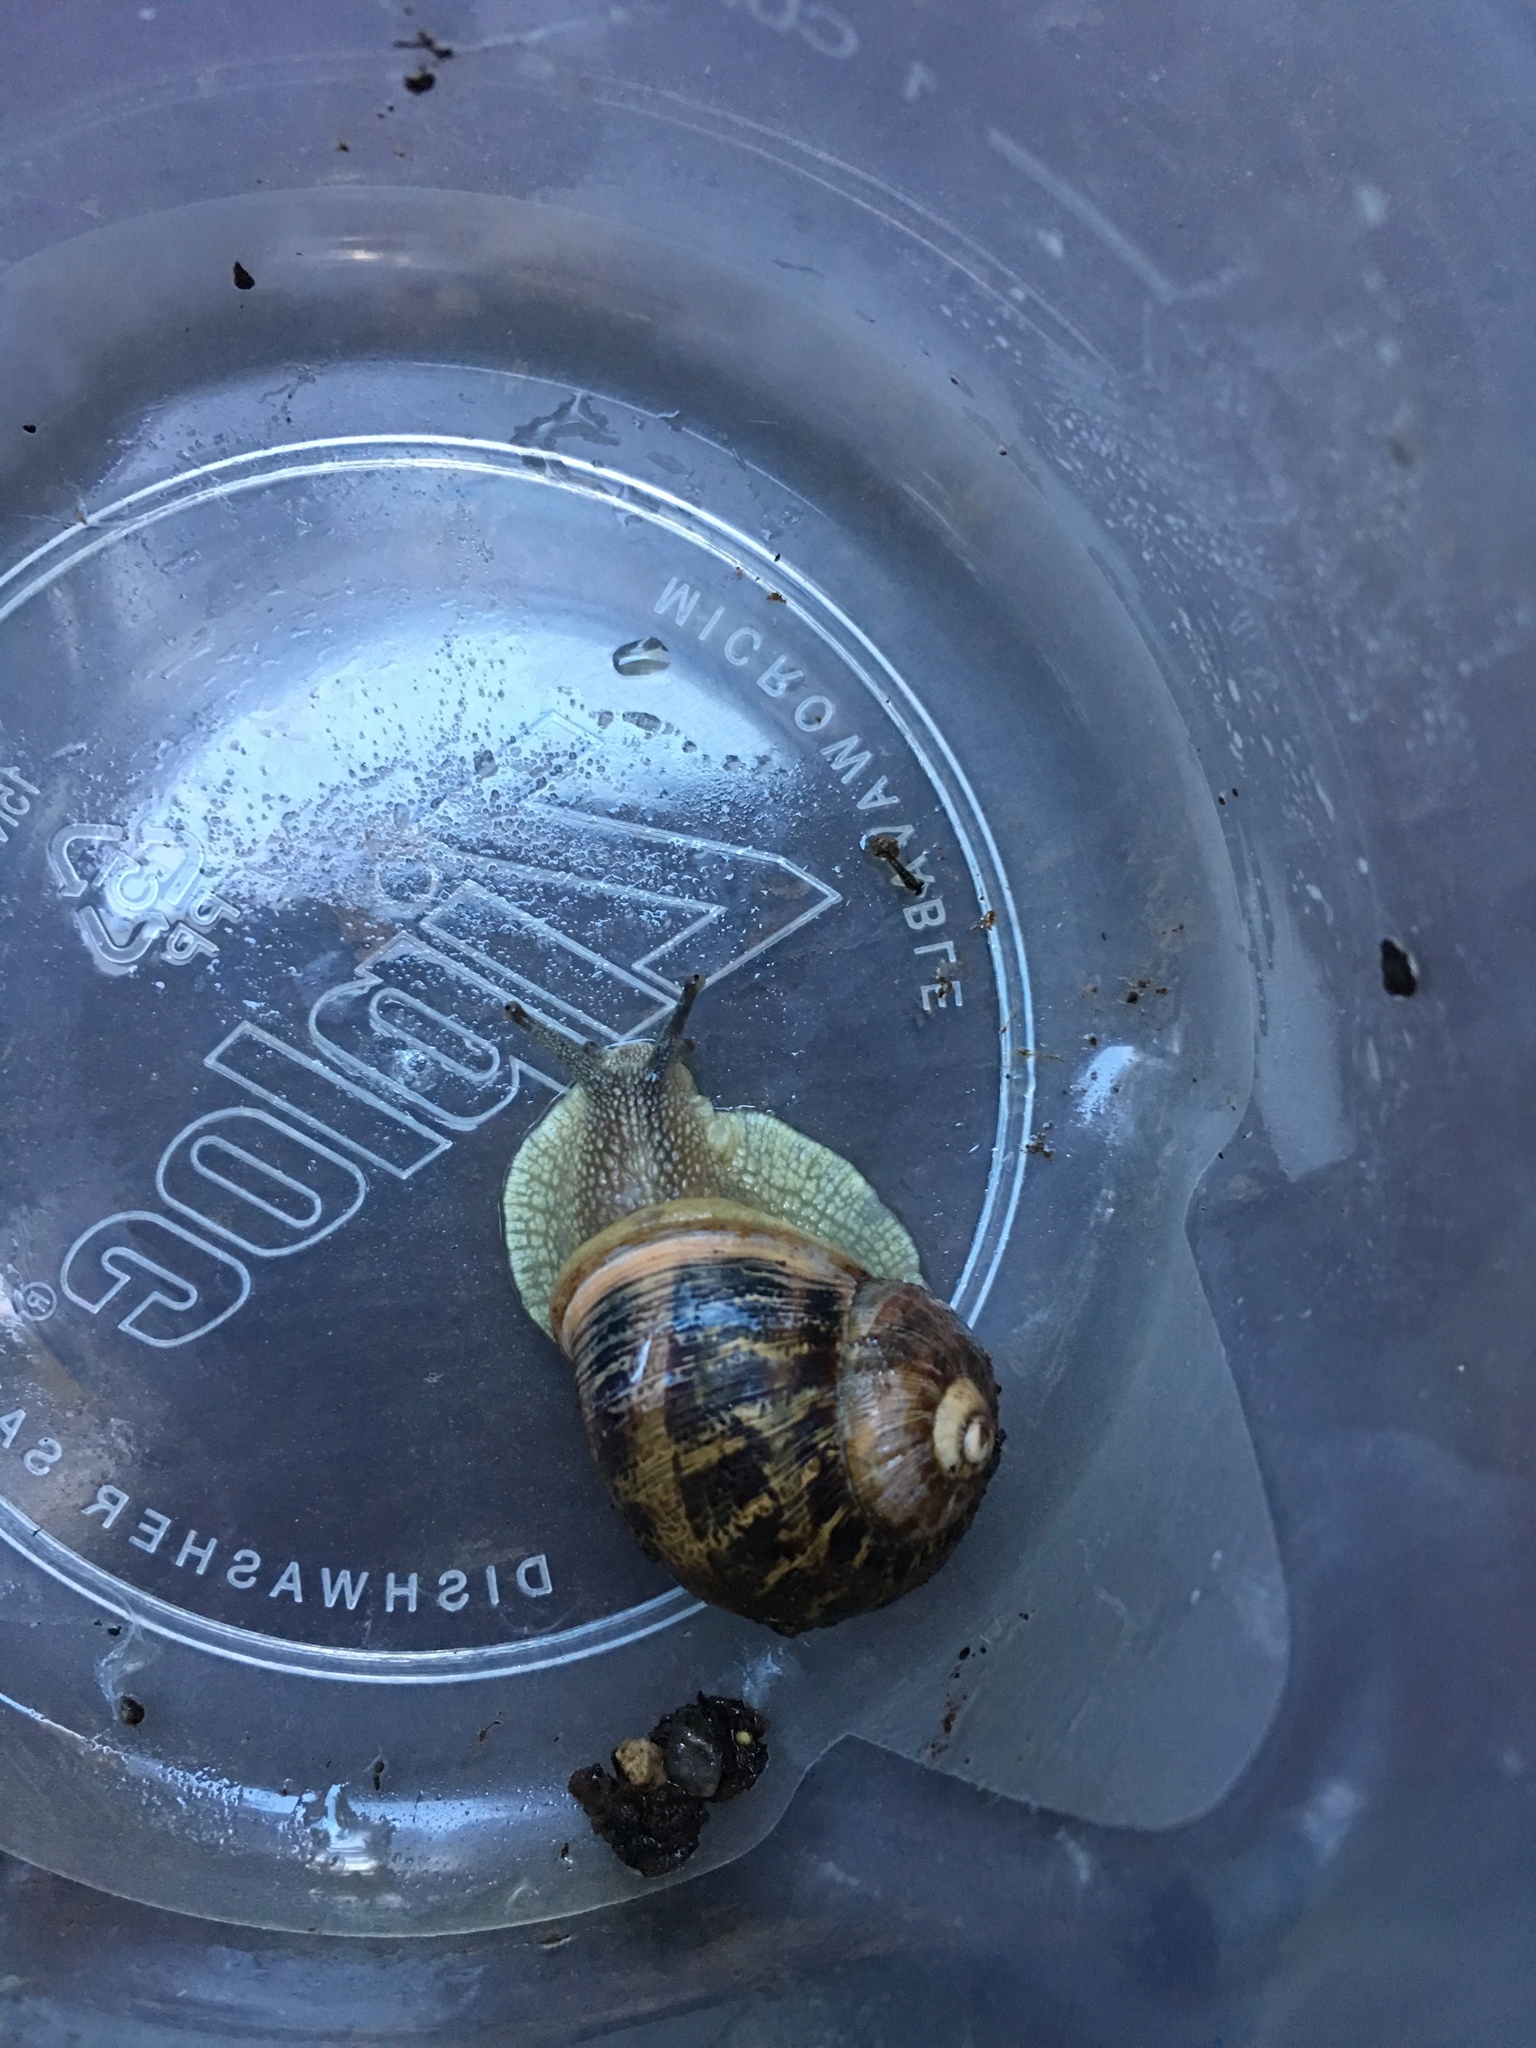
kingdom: Animalia
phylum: Mollusca
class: Gastropoda
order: Stylommatophora
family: Helicidae
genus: Cornu
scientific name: Cornu aspersum
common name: Brown garden snail
